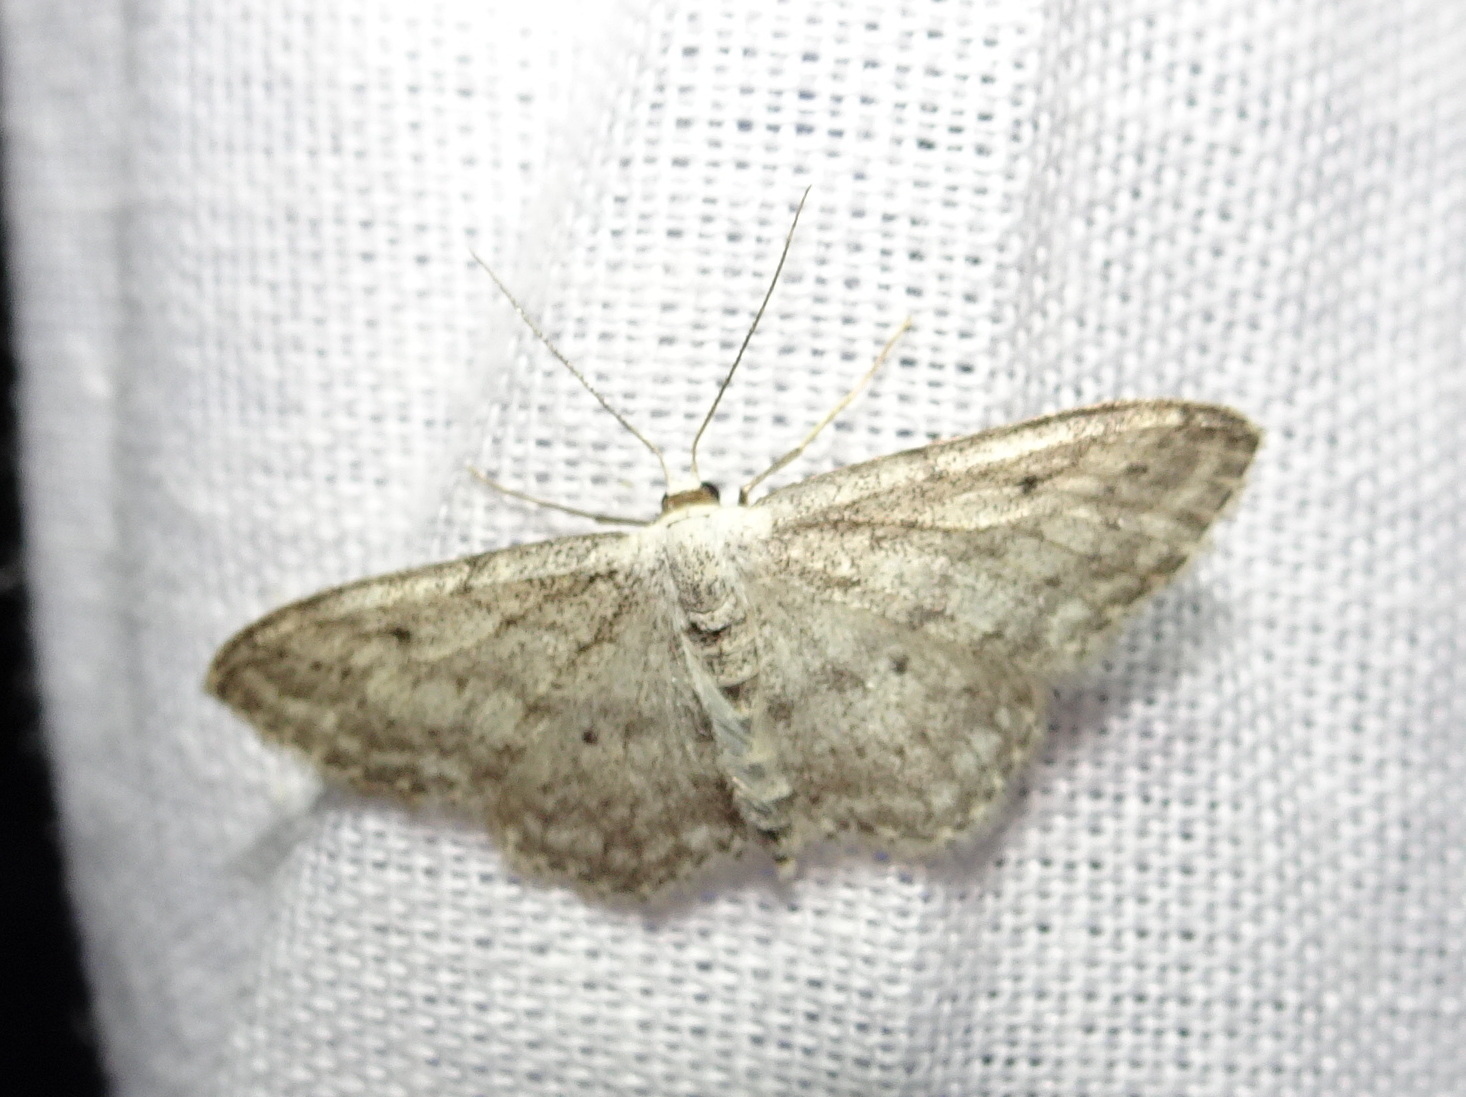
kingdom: Animalia
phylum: Arthropoda
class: Insecta
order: Lepidoptera
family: Geometridae
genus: Idaea
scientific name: Idaea seriata
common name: Small dusty wave
